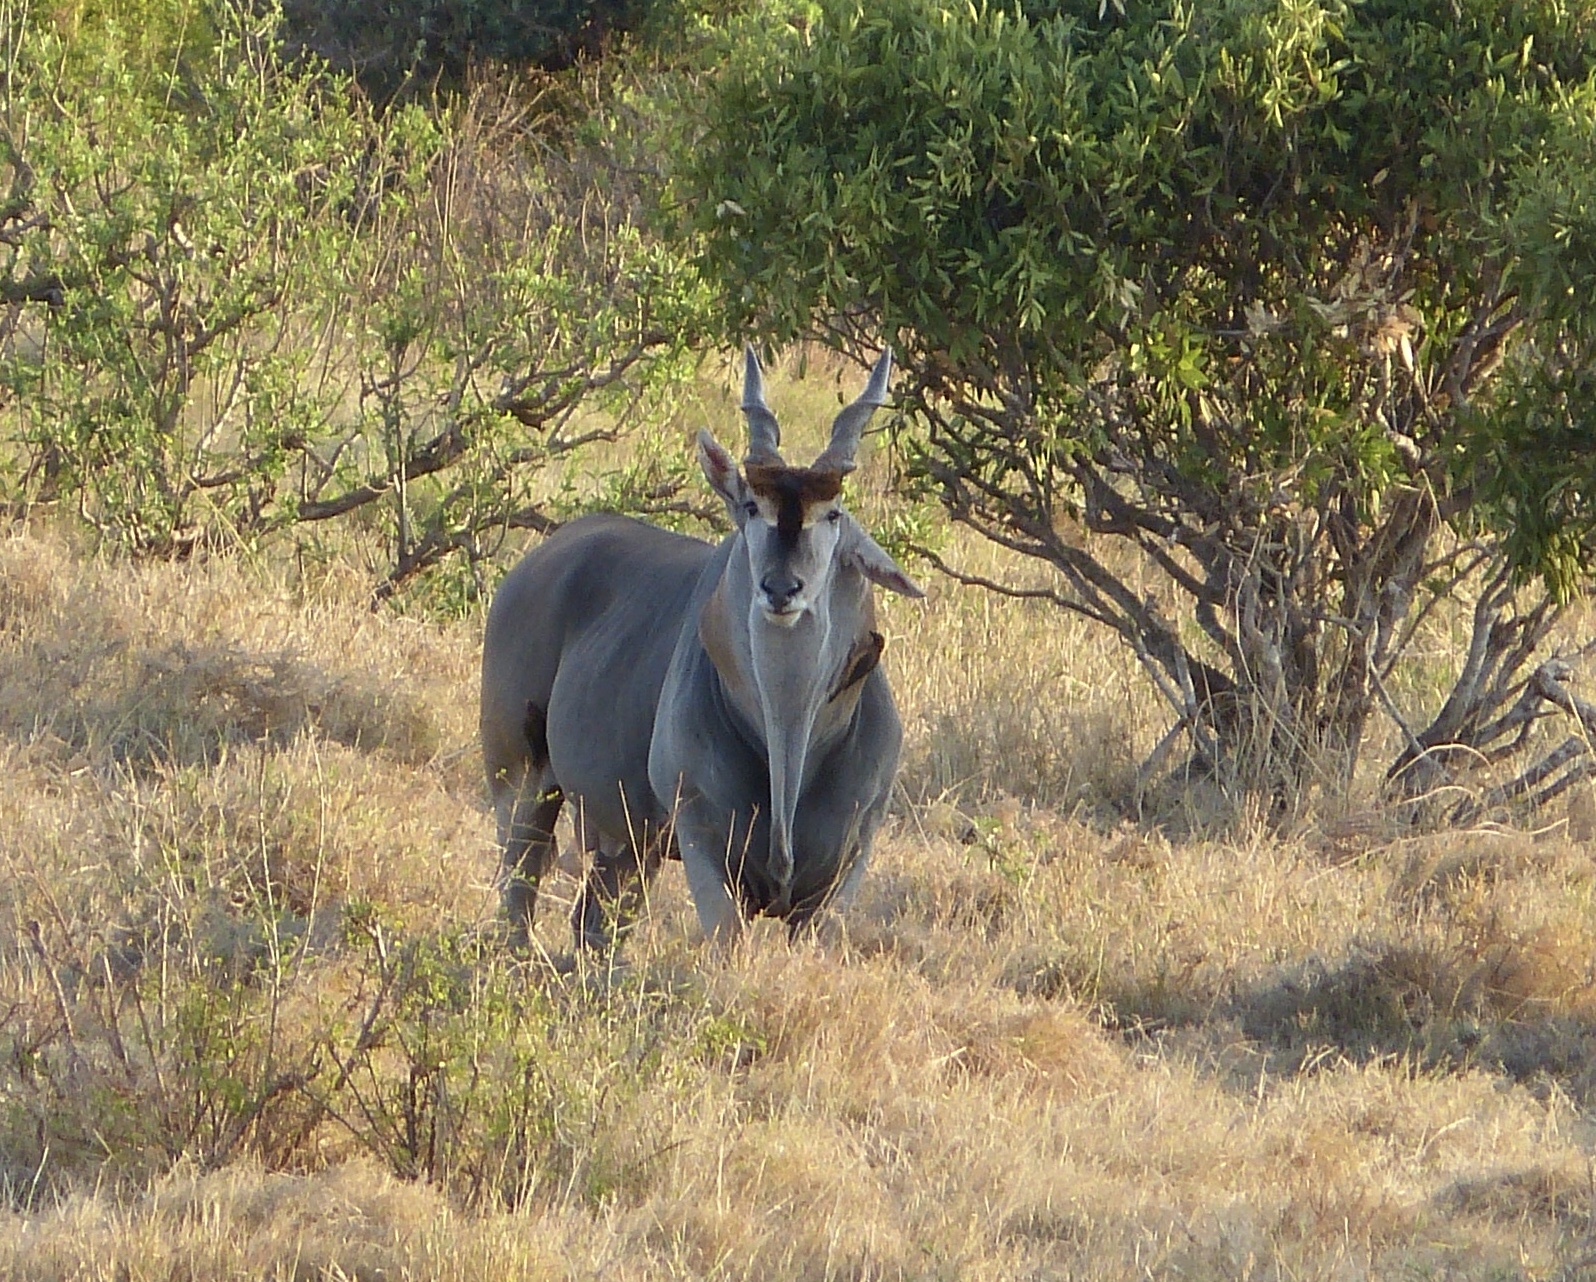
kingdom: Animalia
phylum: Chordata
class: Mammalia
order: Artiodactyla
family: Bovidae
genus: Taurotragus
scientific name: Taurotragus oryx
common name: Common eland
